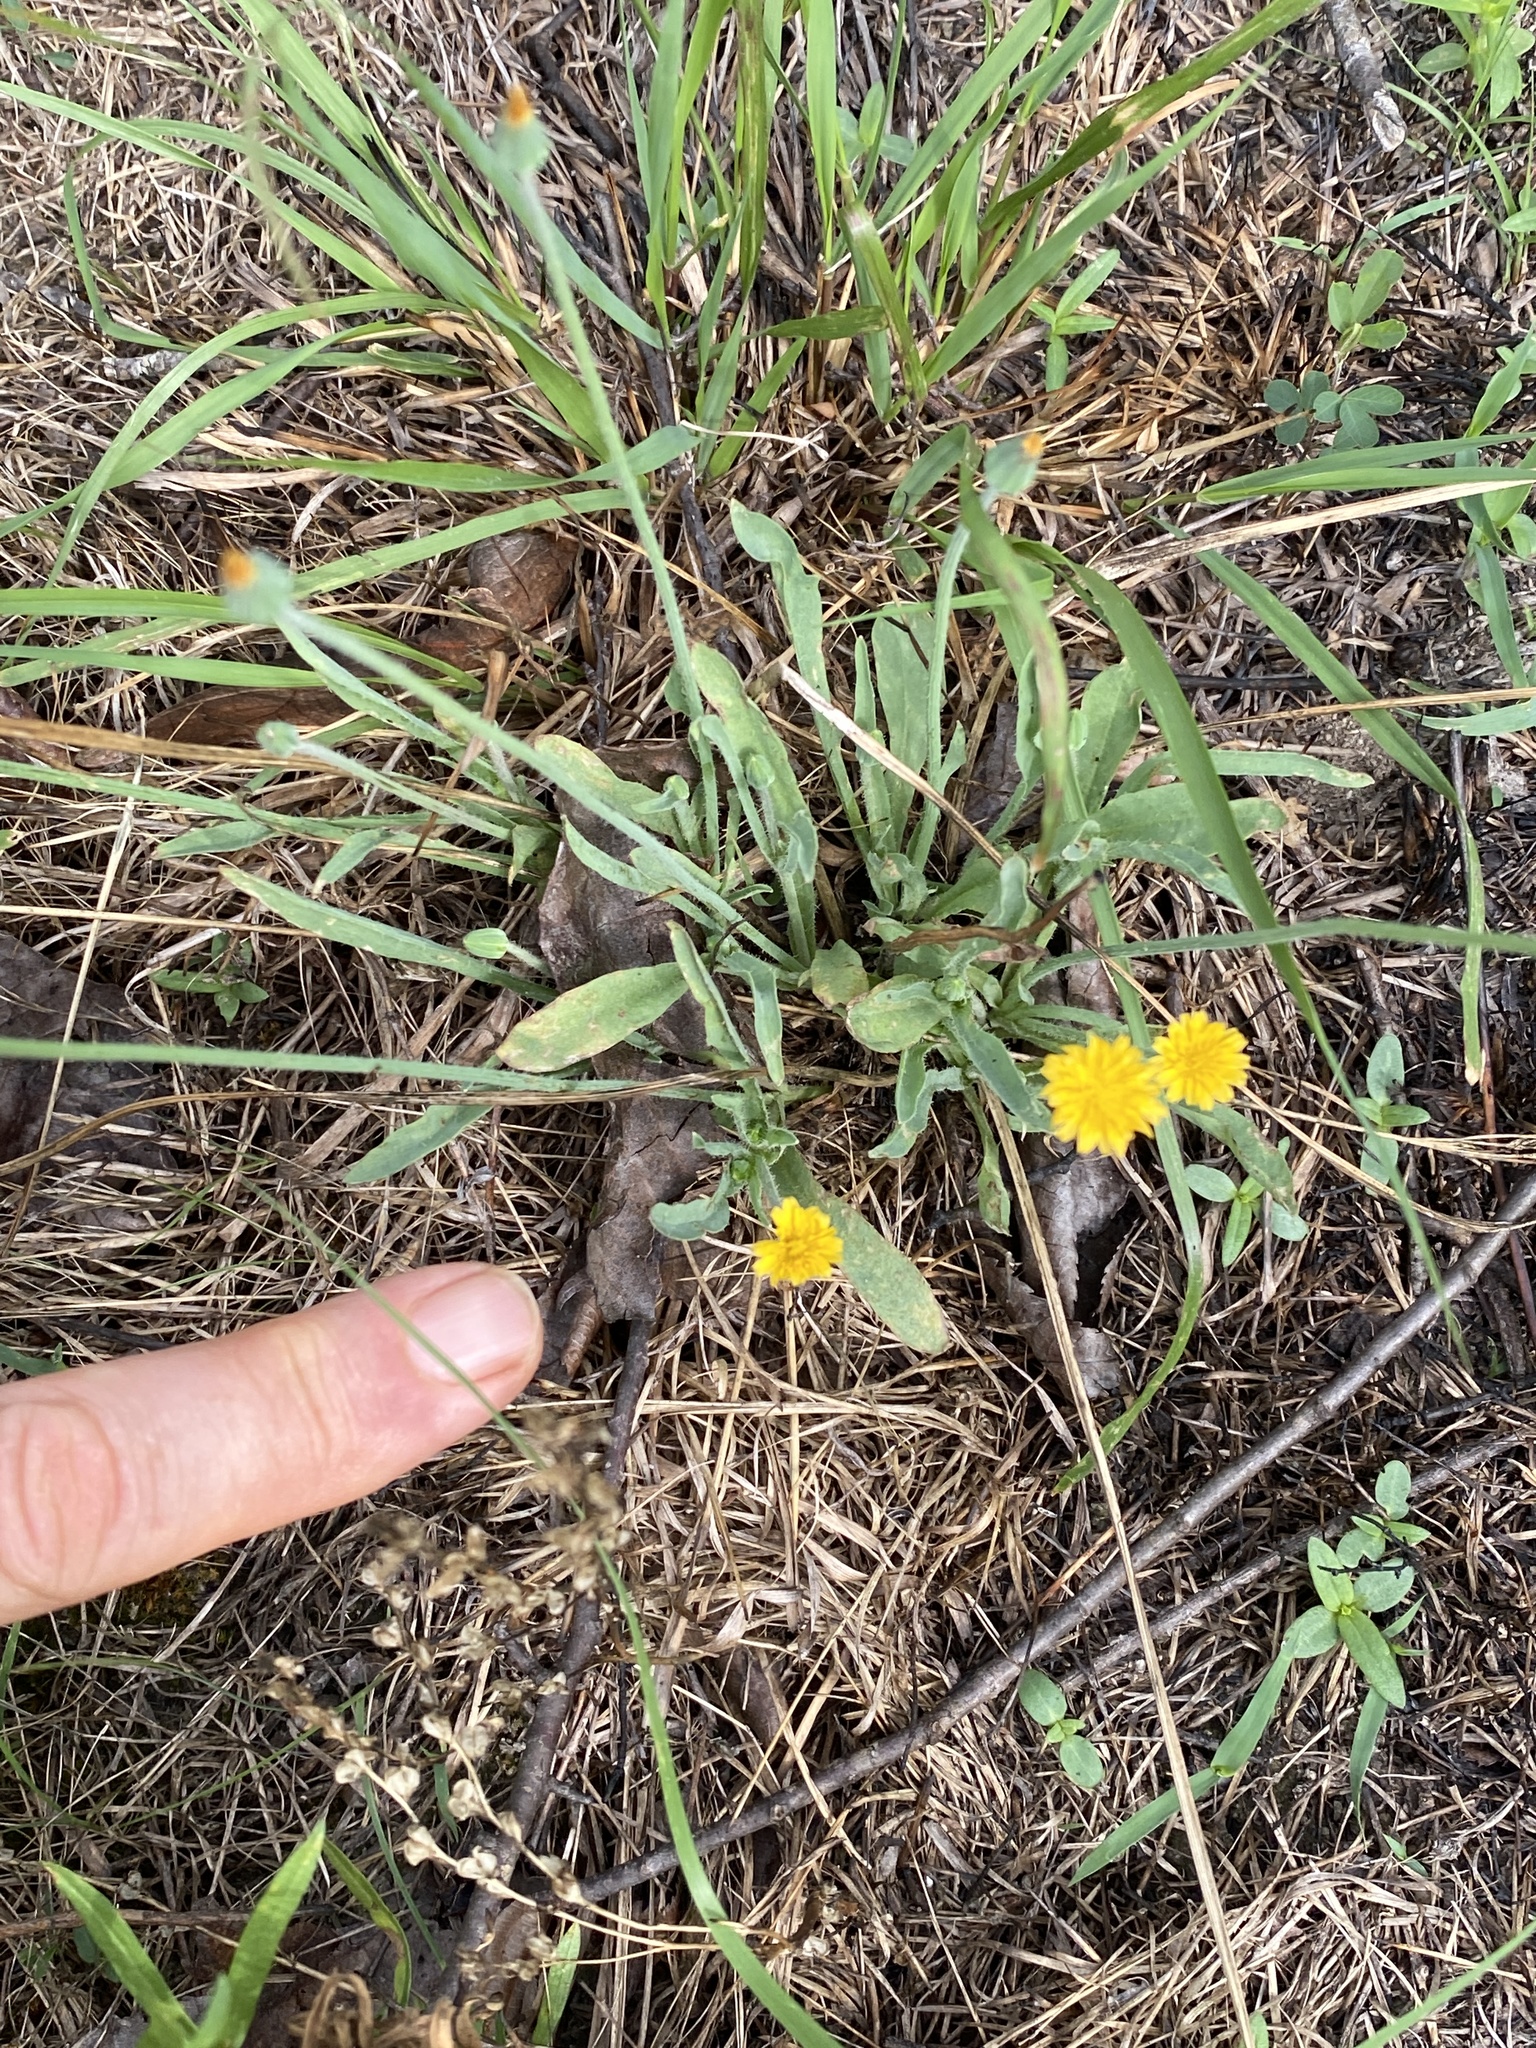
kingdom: Plantae
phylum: Tracheophyta
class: Magnoliopsida
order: Asterales
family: Asteraceae
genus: Krigia
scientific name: Krigia virginica
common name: Virginia dwarf-dandelion
